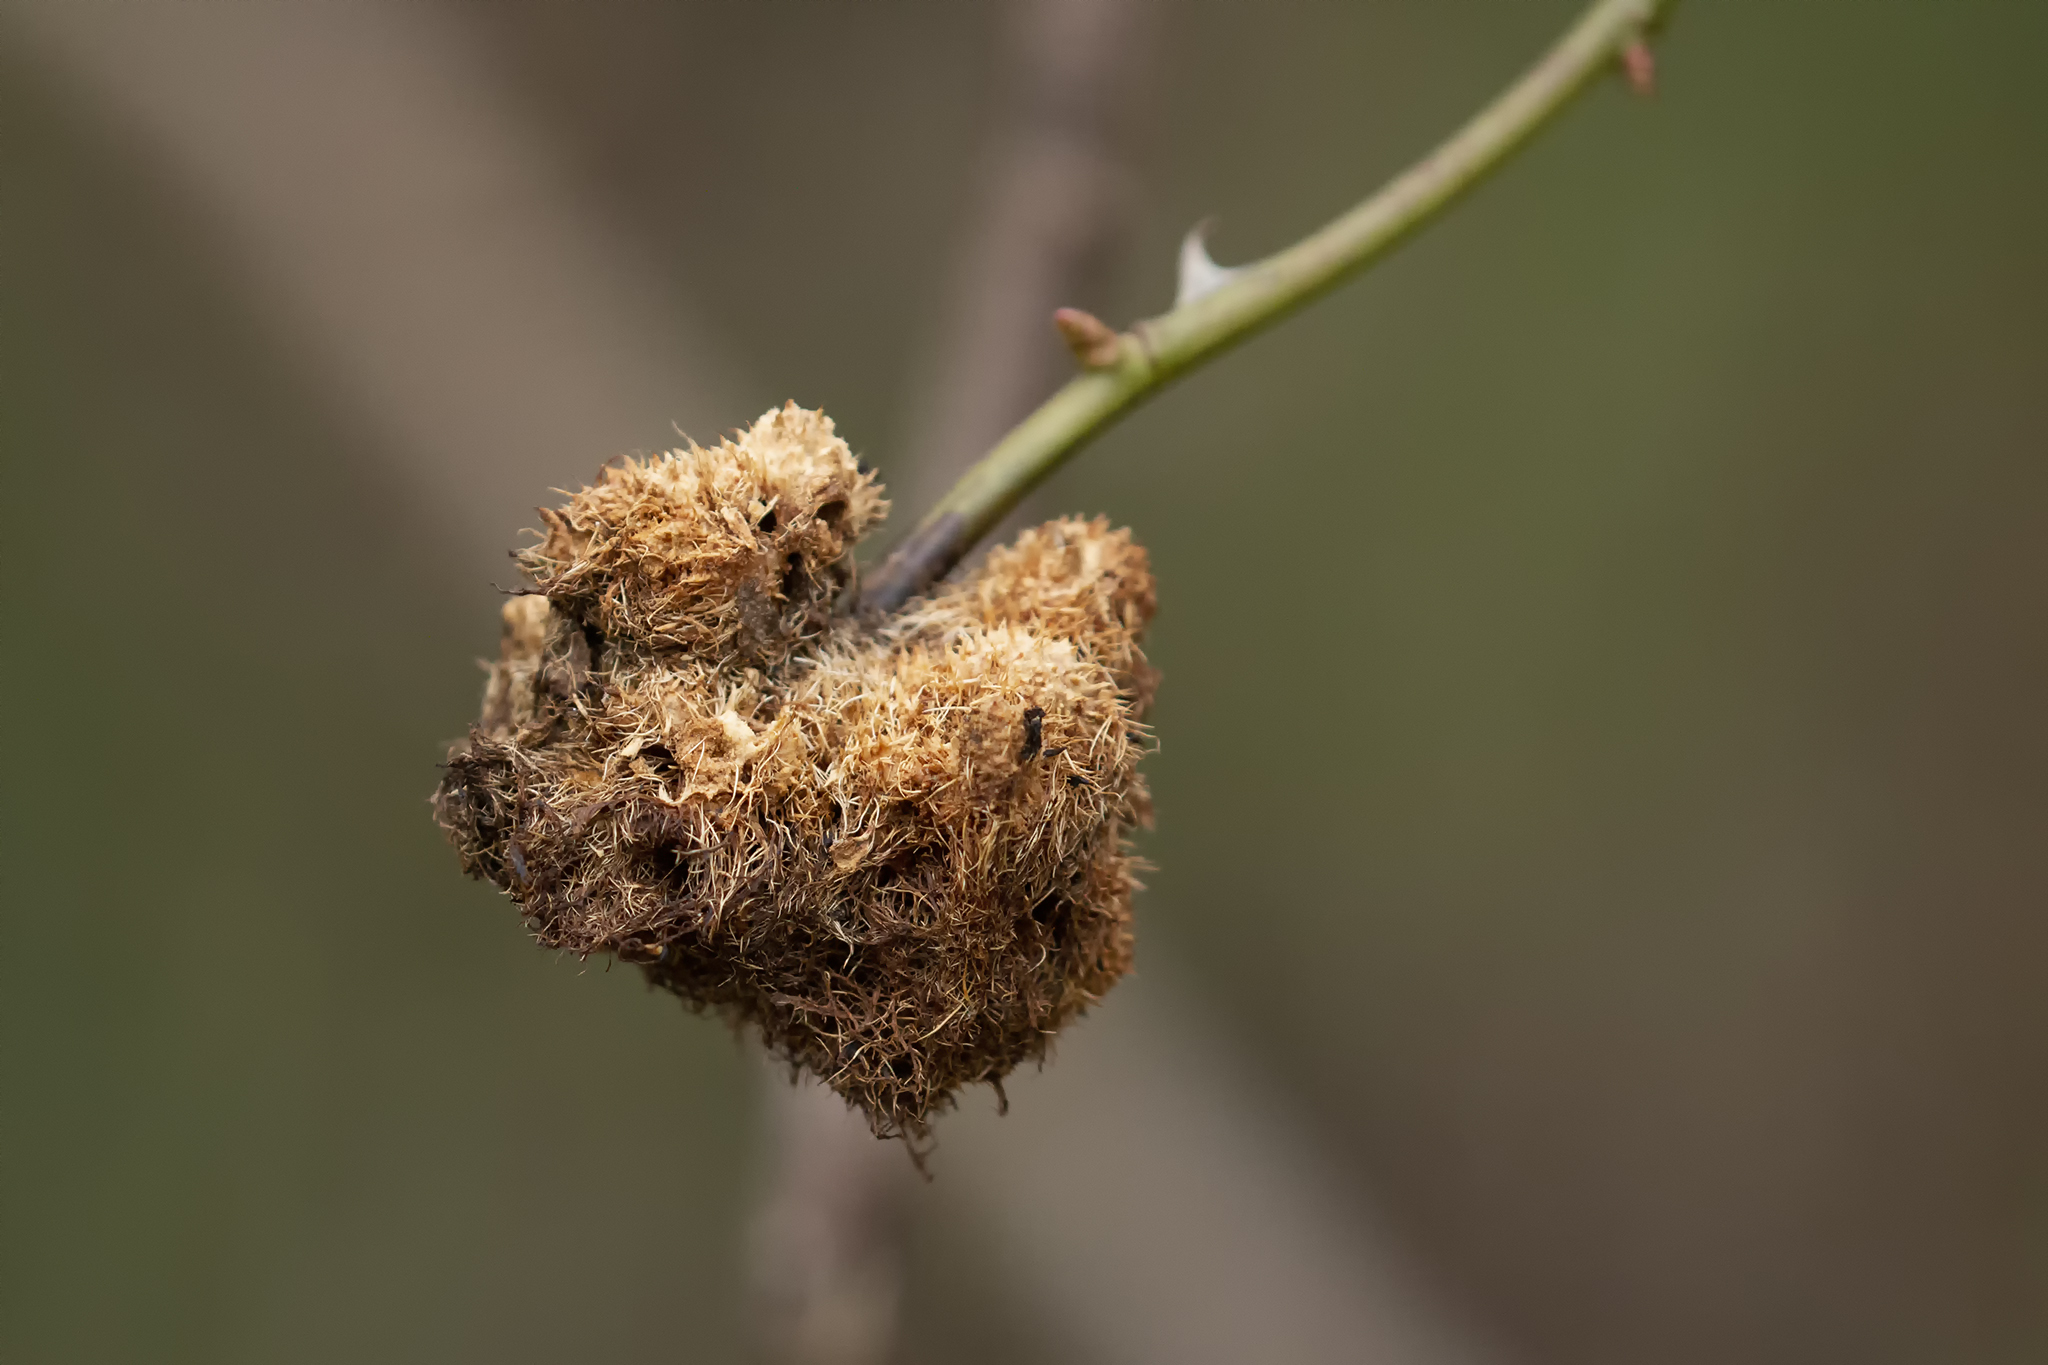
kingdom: Animalia
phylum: Arthropoda
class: Insecta
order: Hymenoptera
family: Cynipidae
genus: Diplolepis
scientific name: Diplolepis rosae
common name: Bedeguar gall
